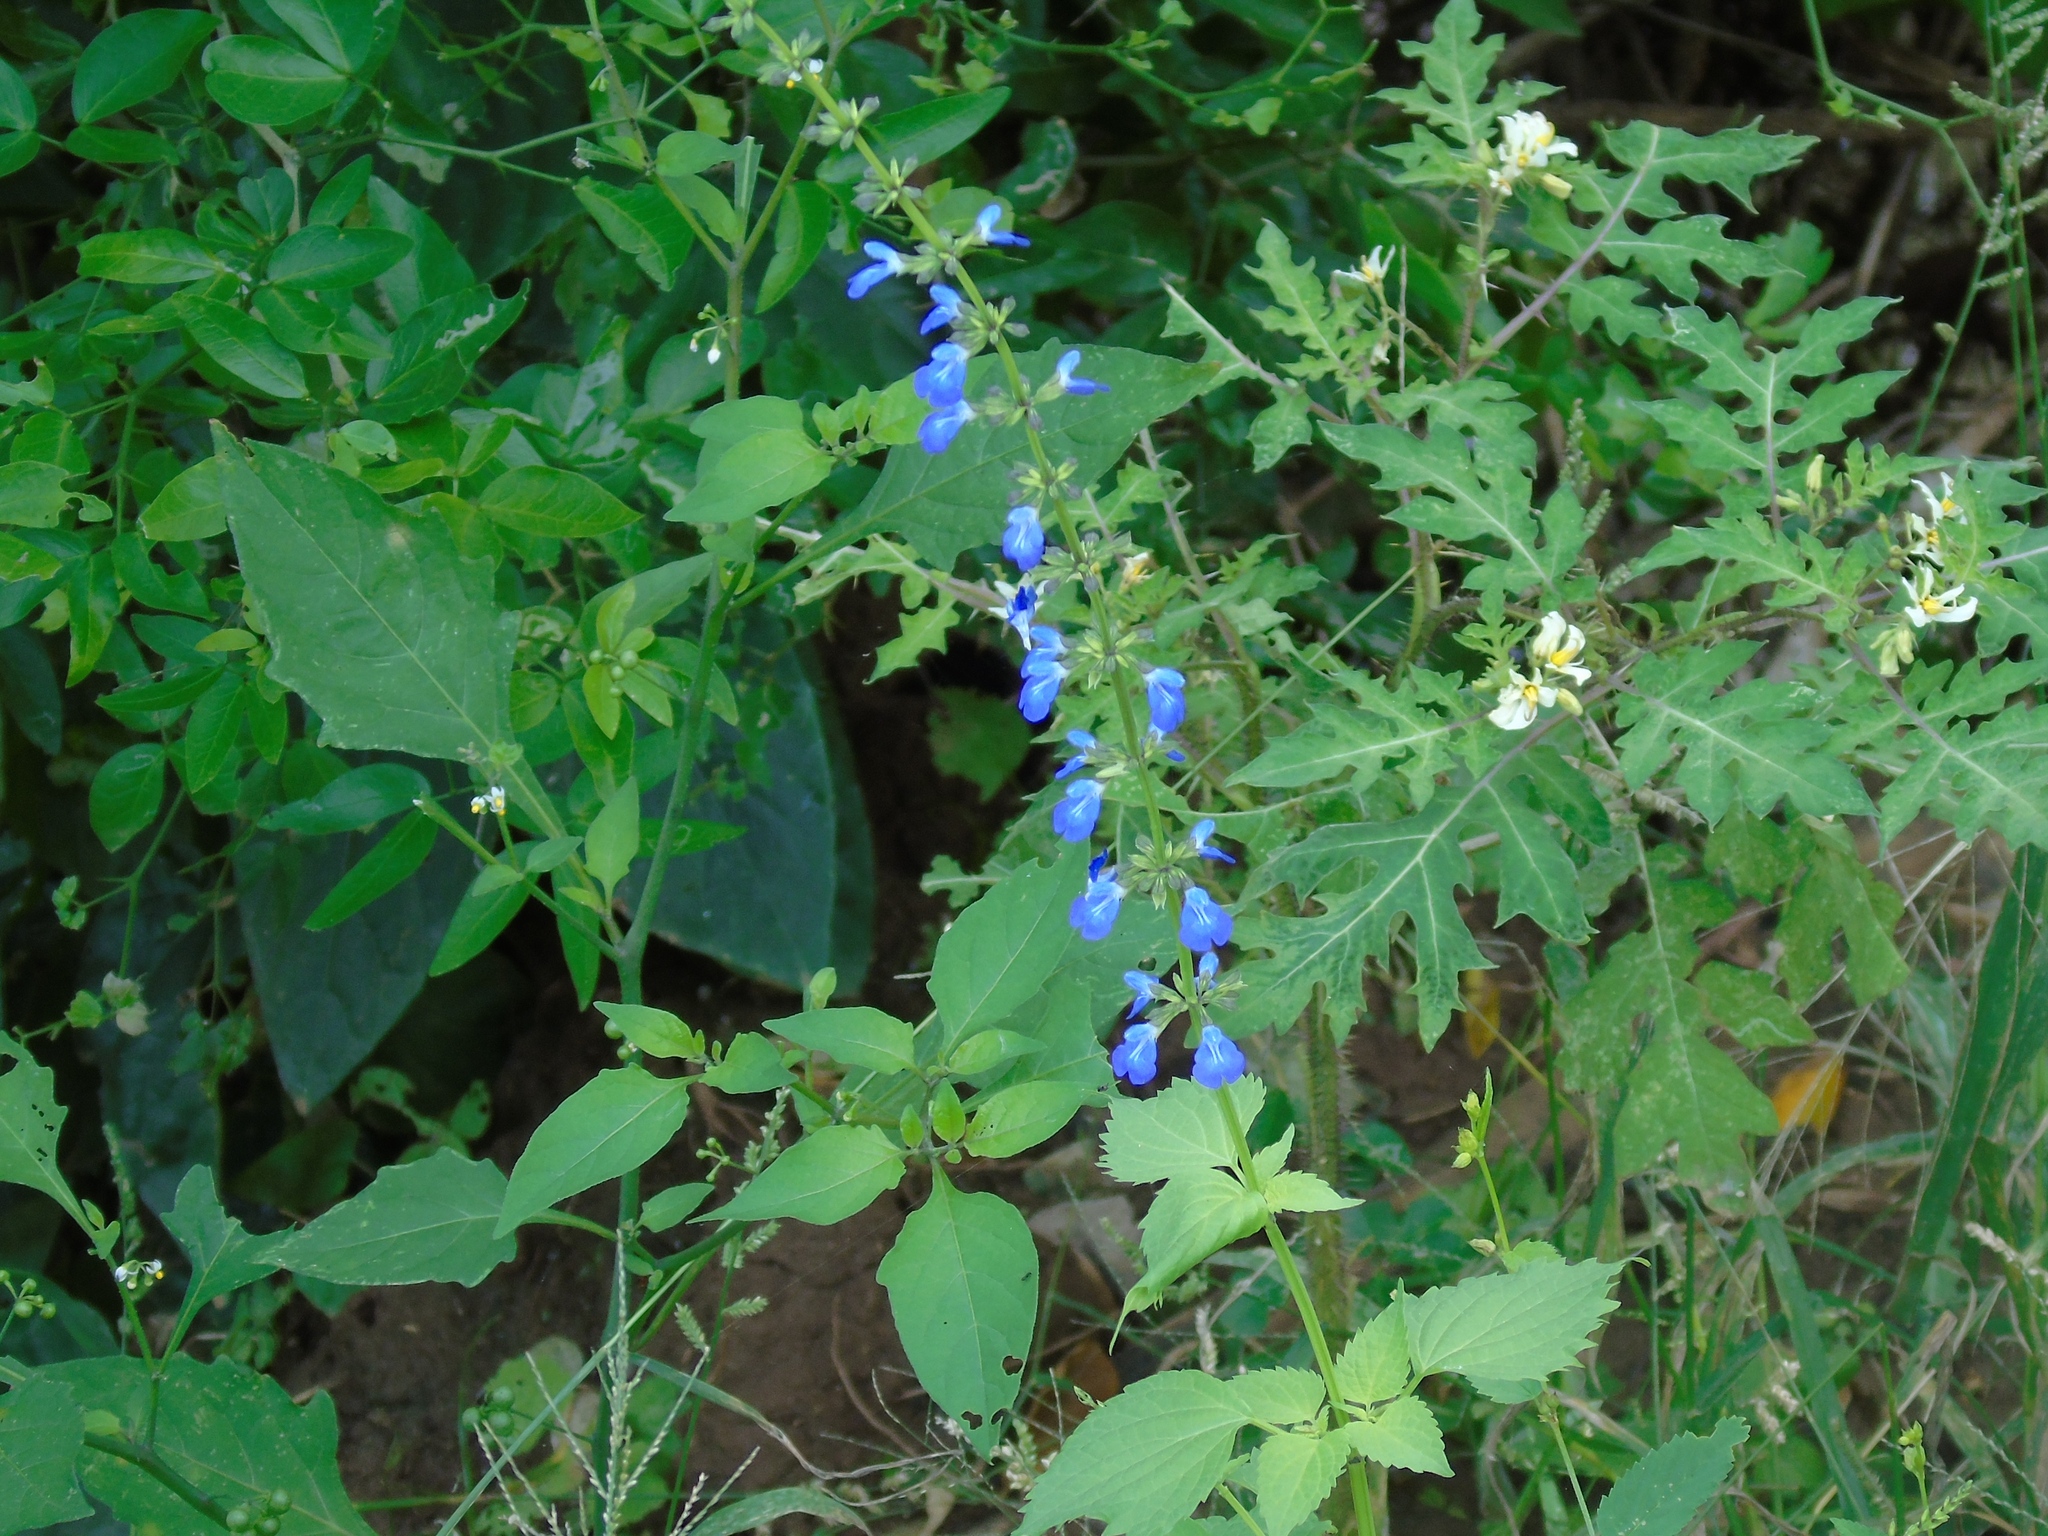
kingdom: Plantae
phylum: Tracheophyta
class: Magnoliopsida
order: Lamiales
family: Lamiaceae
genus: Salvia
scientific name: Salvia languidula
